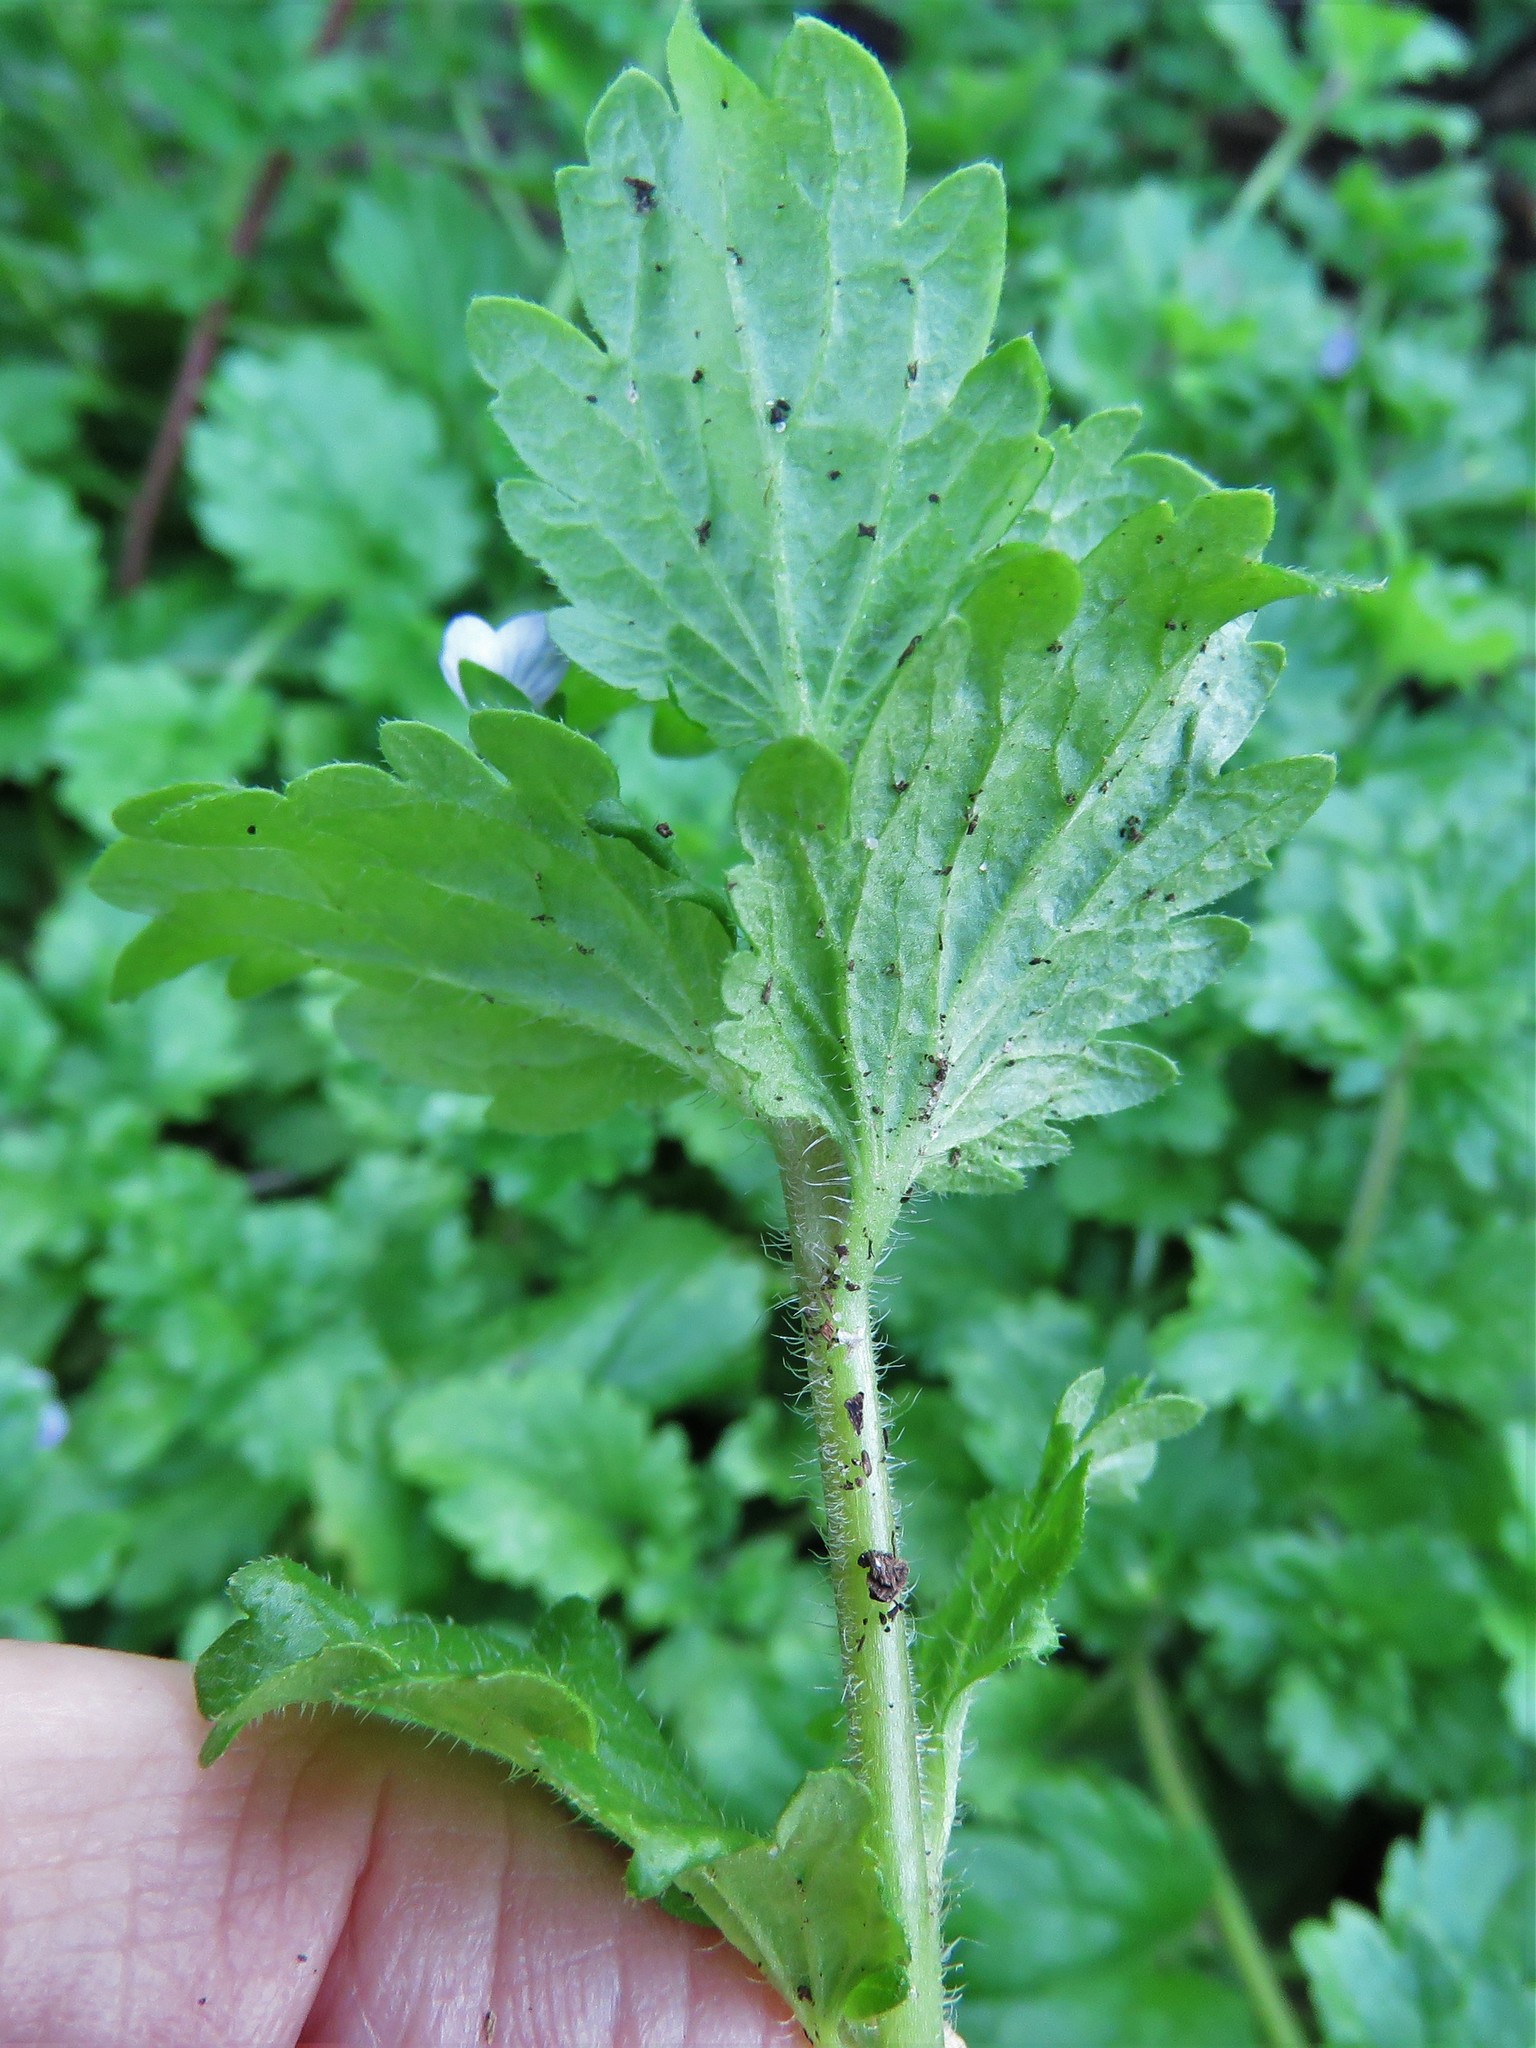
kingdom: Plantae
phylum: Tracheophyta
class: Magnoliopsida
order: Lamiales
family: Plantaginaceae
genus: Veronica
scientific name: Veronica persica
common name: Common field-speedwell
